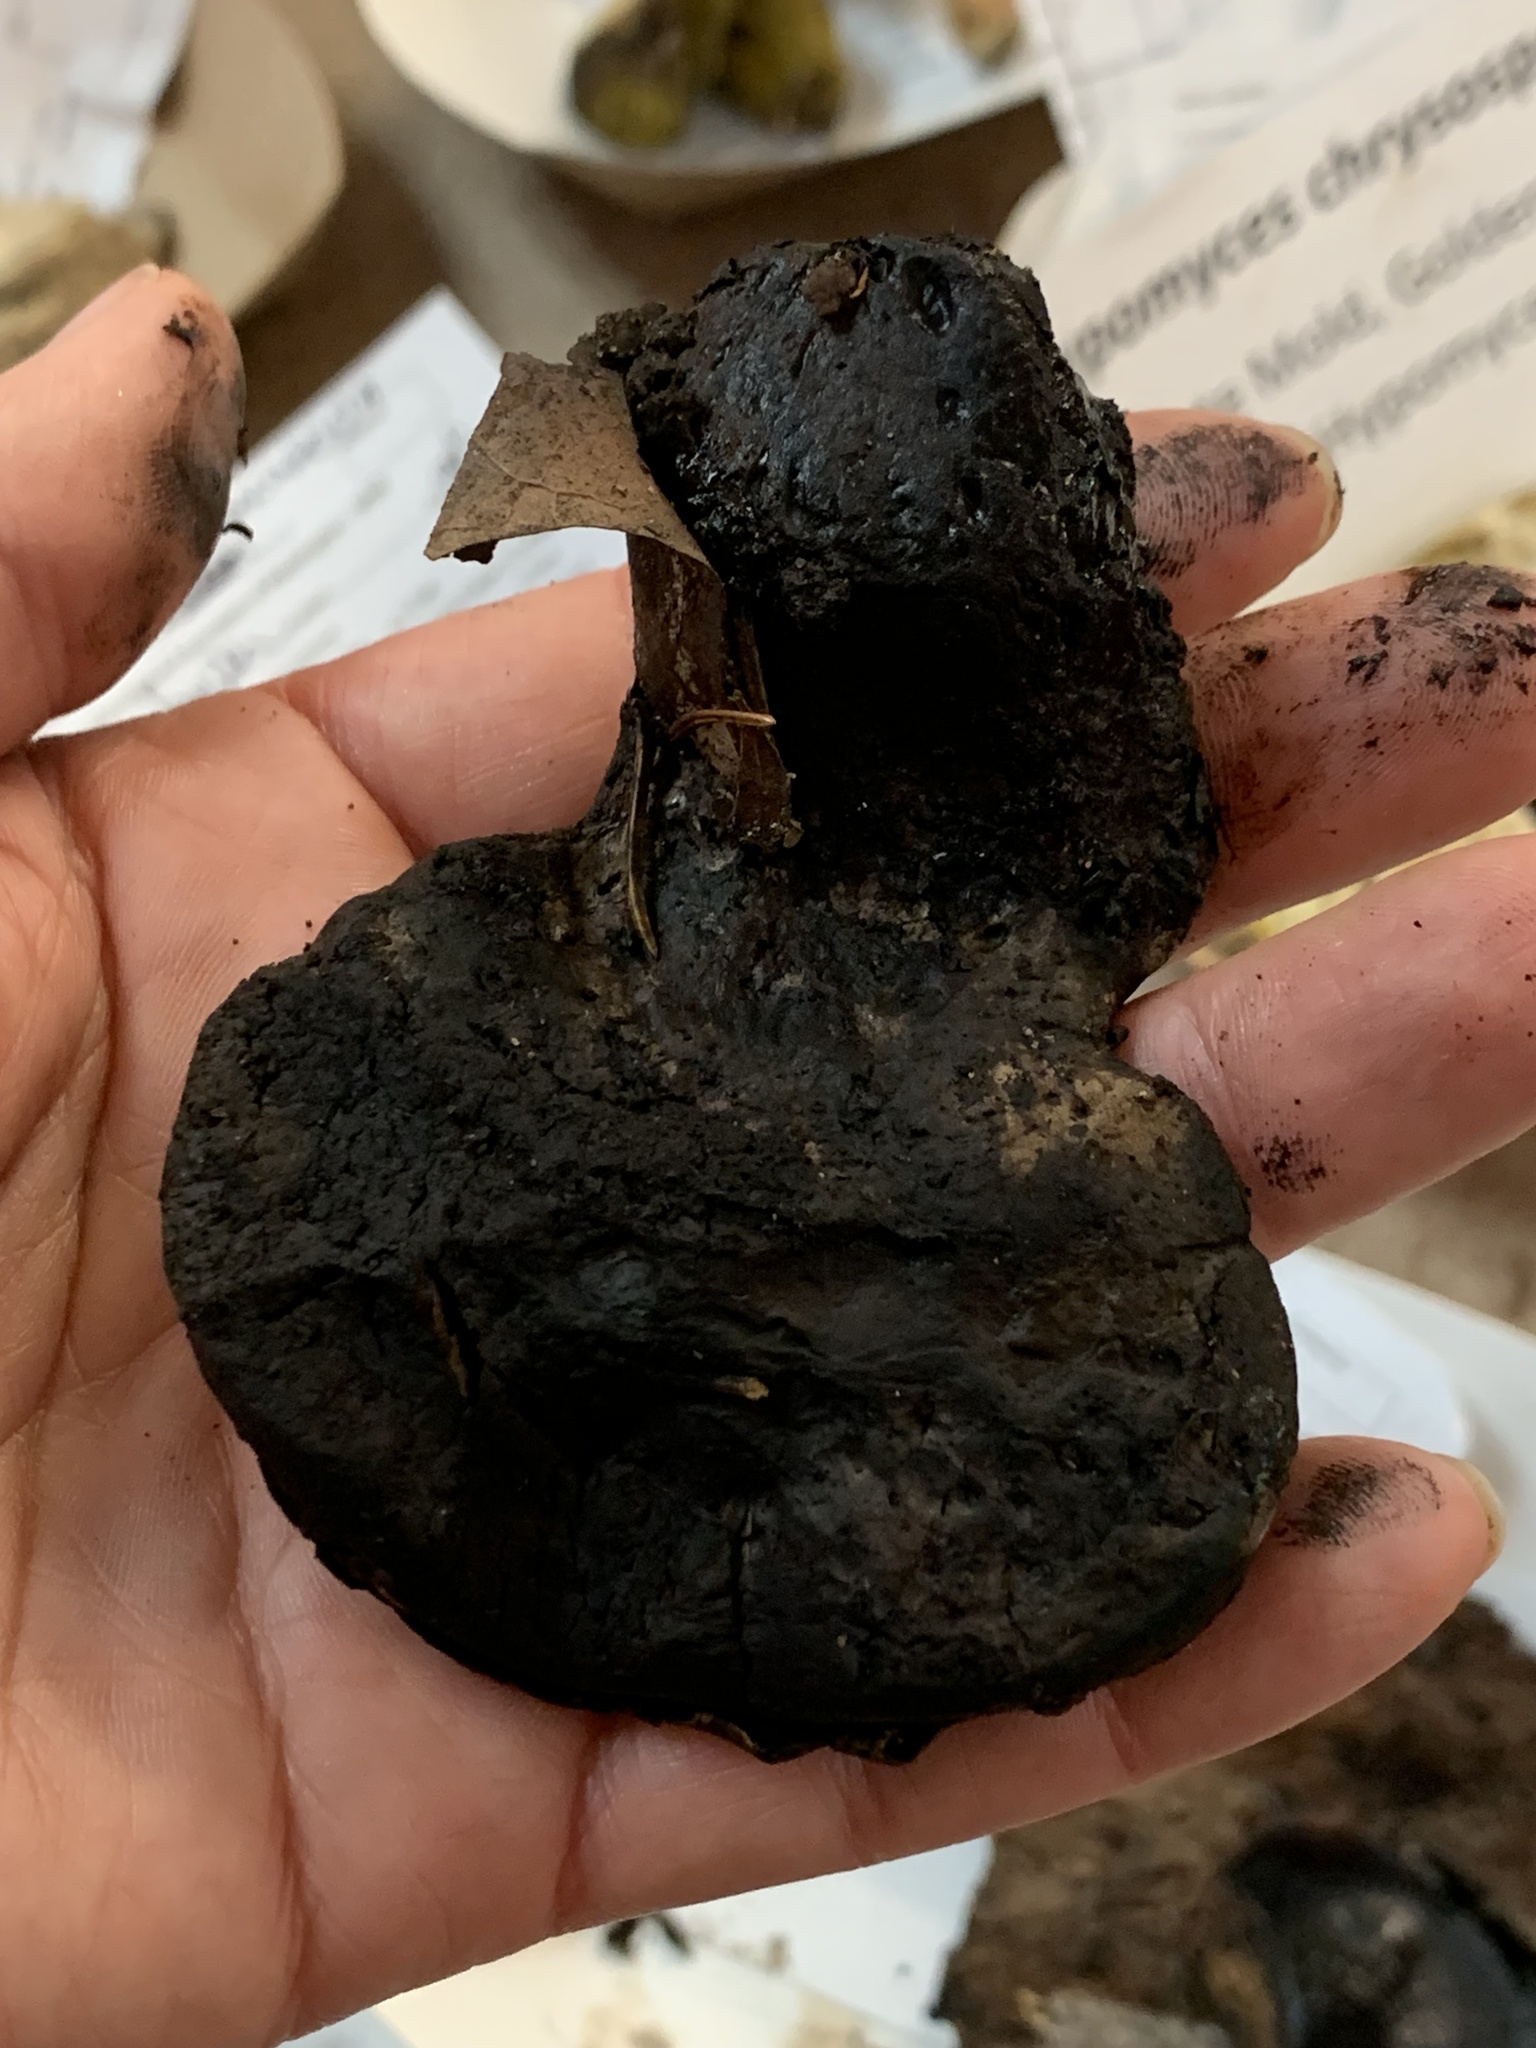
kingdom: Fungi
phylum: Ascomycota
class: Sordariomycetes
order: Boliniales
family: Boliniaceae
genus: Camarops
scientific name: Camarops petersii
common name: Dog's nose fungus
